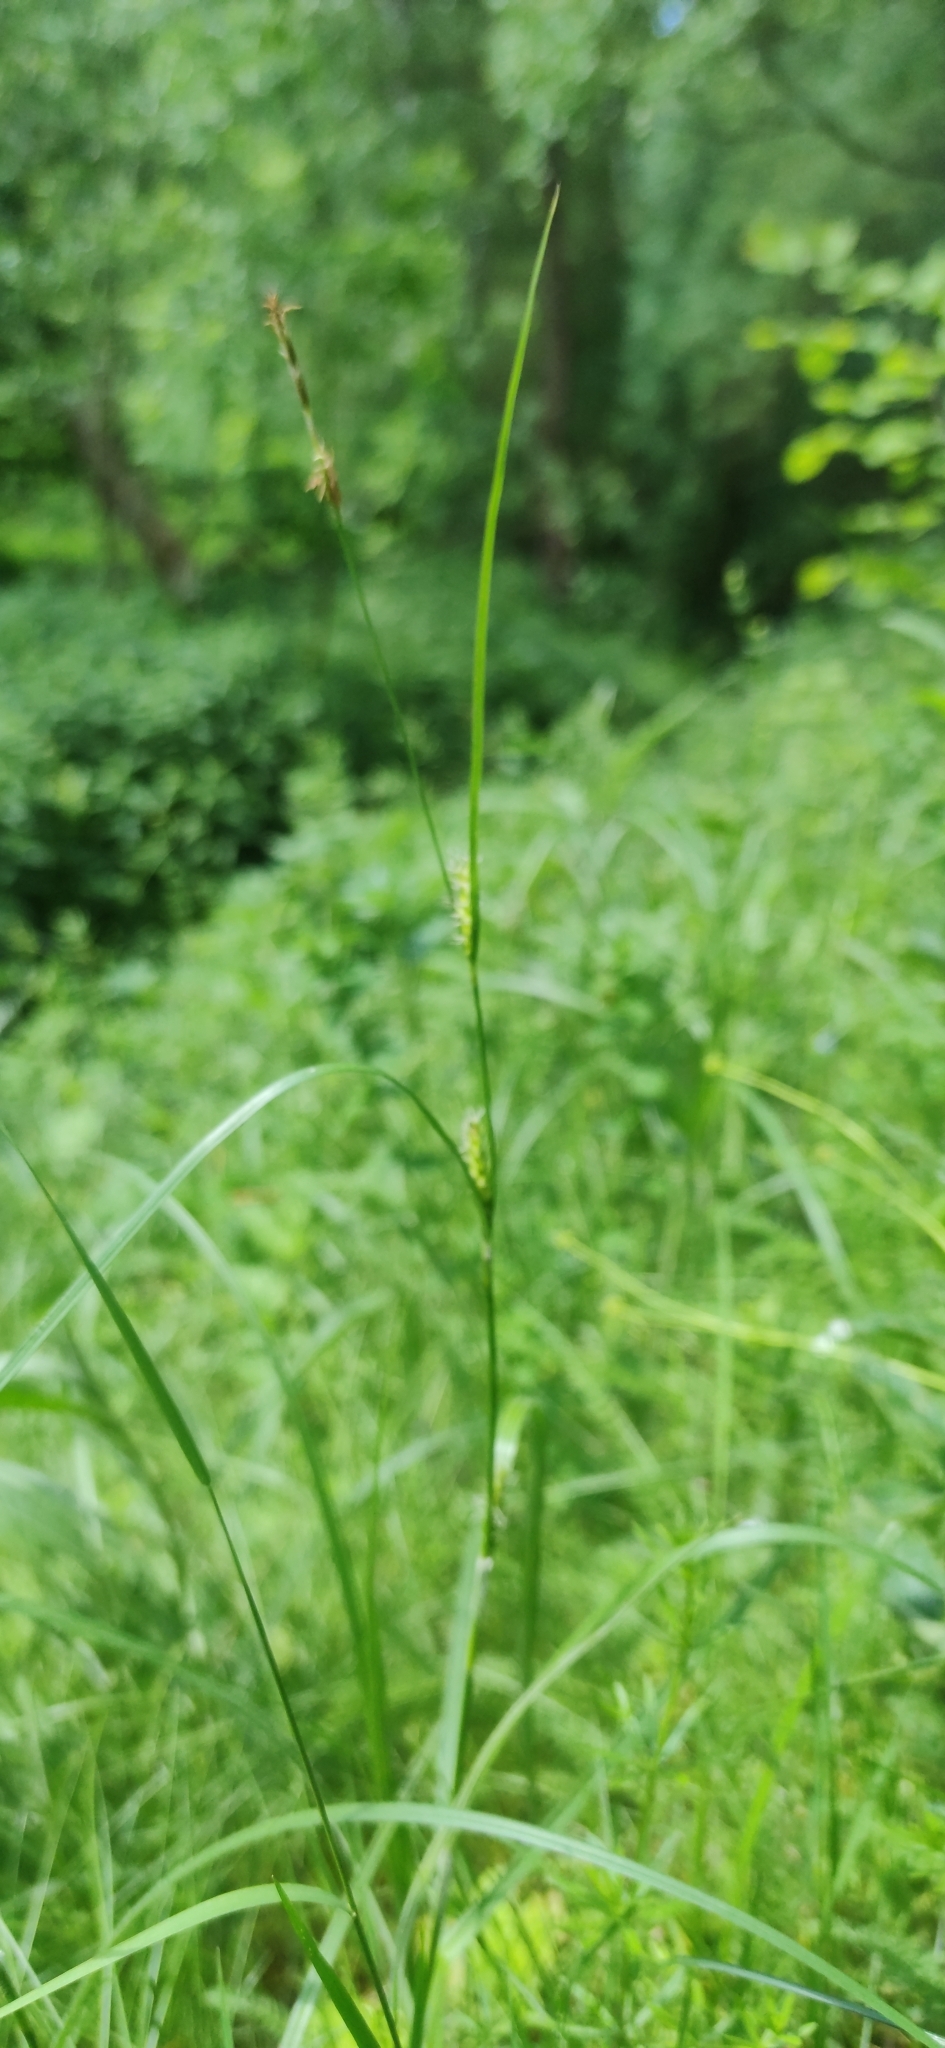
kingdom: Plantae
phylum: Tracheophyta
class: Liliopsida
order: Poales
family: Cyperaceae
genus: Carex
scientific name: Carex hirta
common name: Hairy sedge
